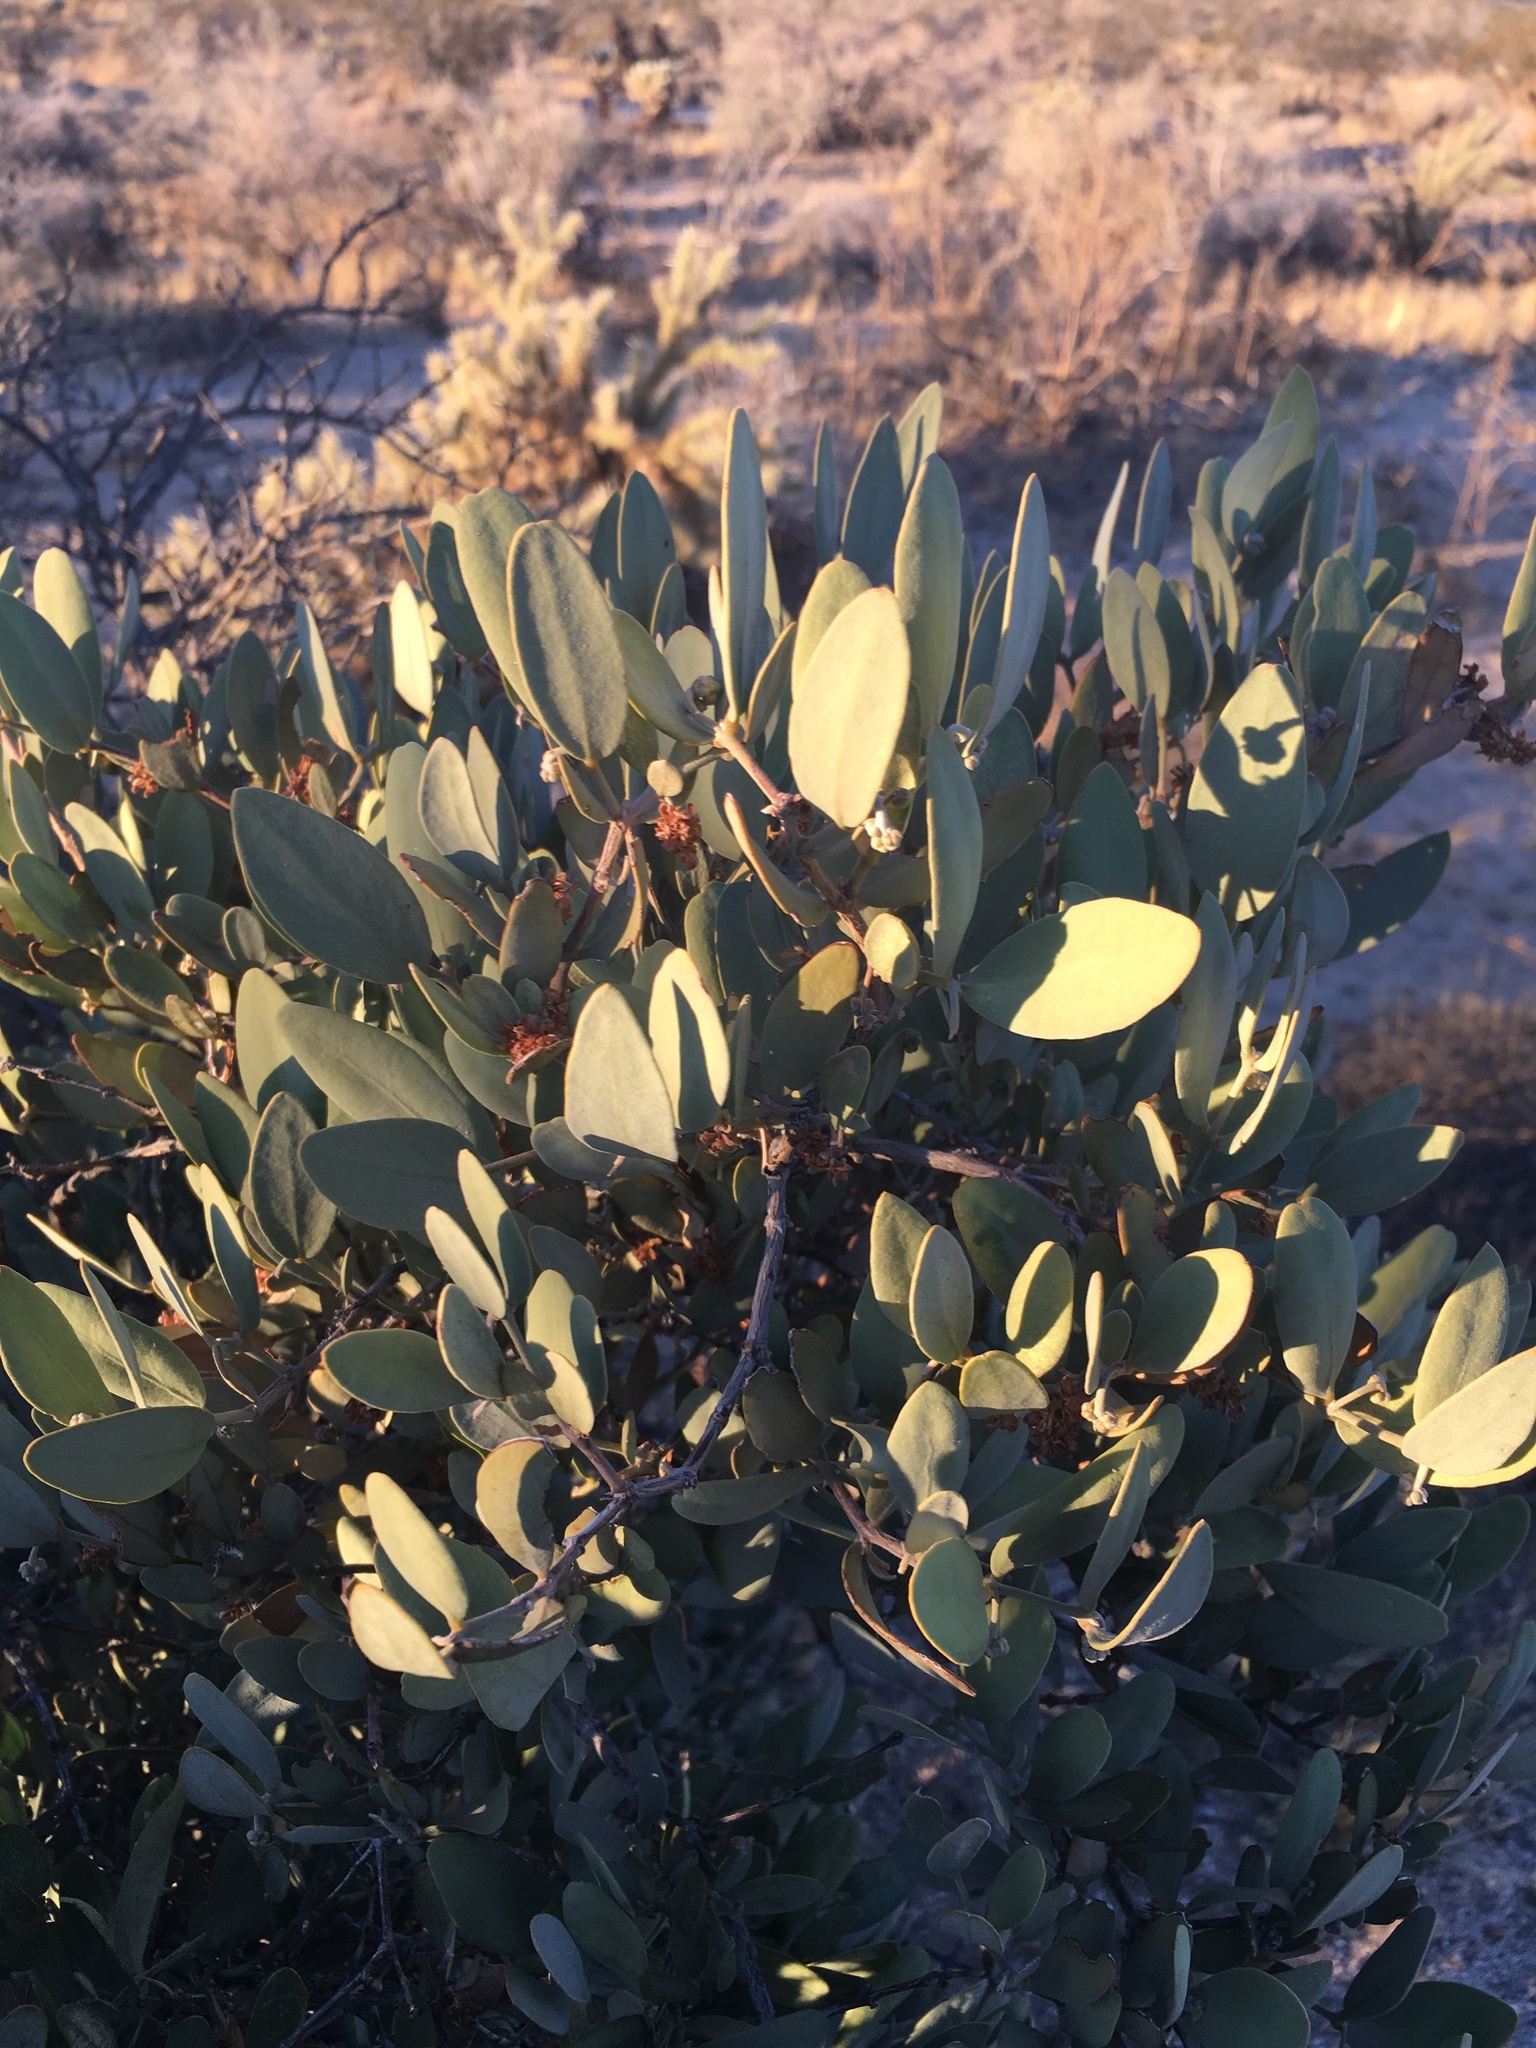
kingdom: Plantae
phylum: Tracheophyta
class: Magnoliopsida
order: Caryophyllales
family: Simmondsiaceae
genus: Simmondsia
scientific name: Simmondsia chinensis
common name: Jojoba
